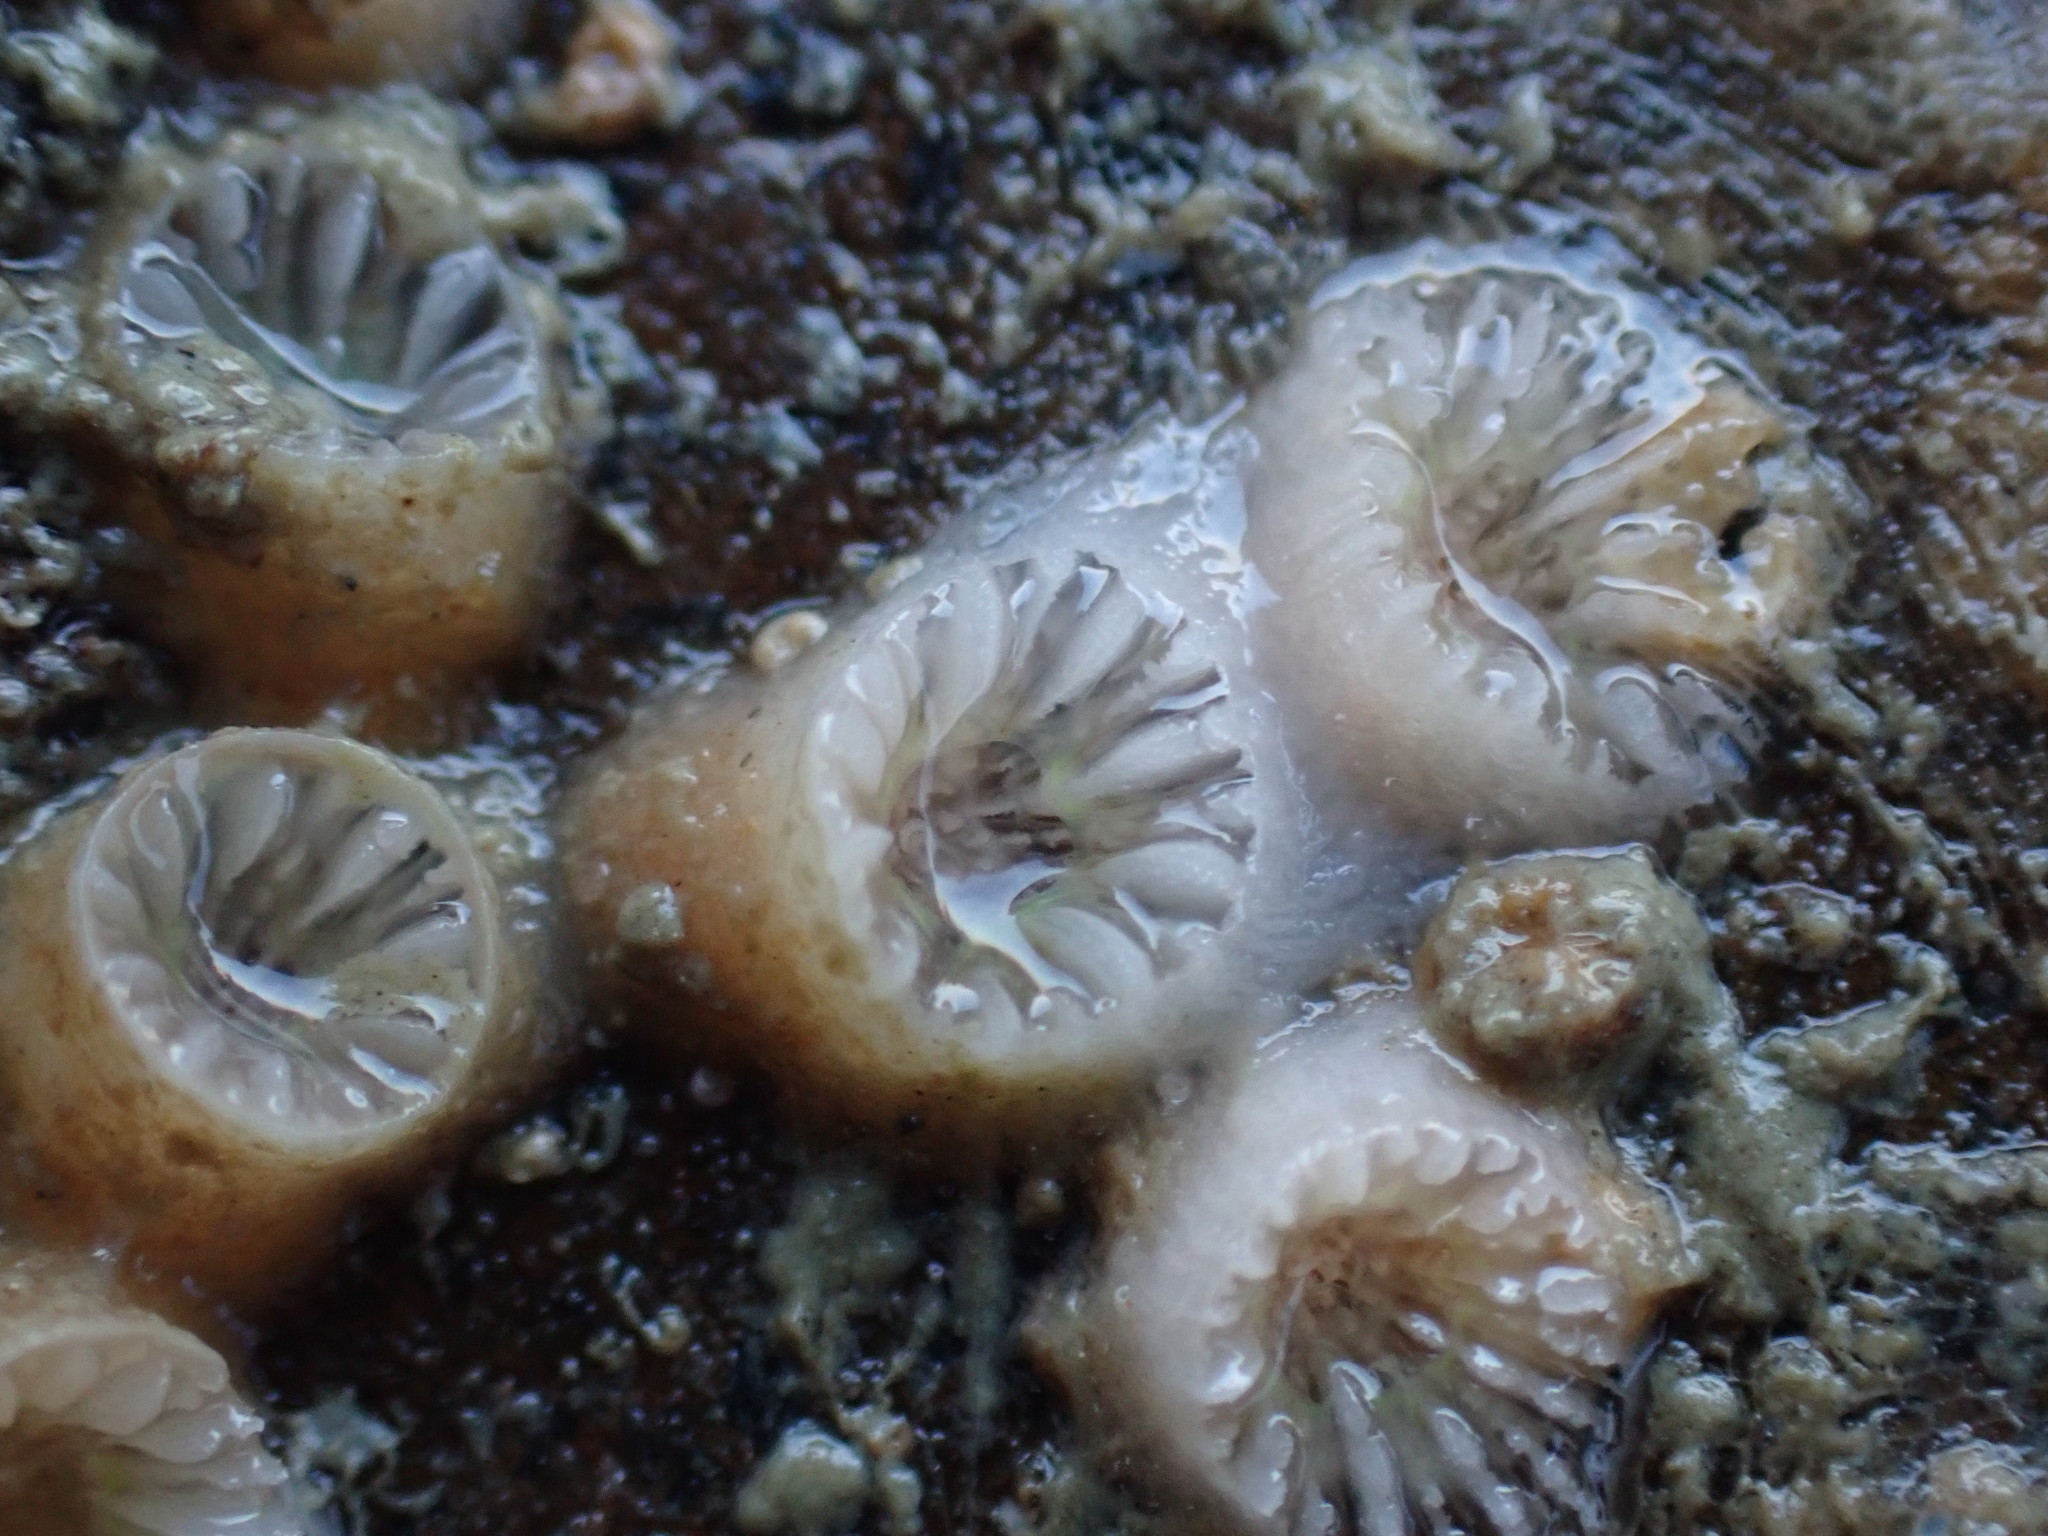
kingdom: Animalia
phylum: Cnidaria
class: Anthozoa
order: Scleractinia
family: Rhizangiidae
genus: Culicia
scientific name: Culicia rubeola
